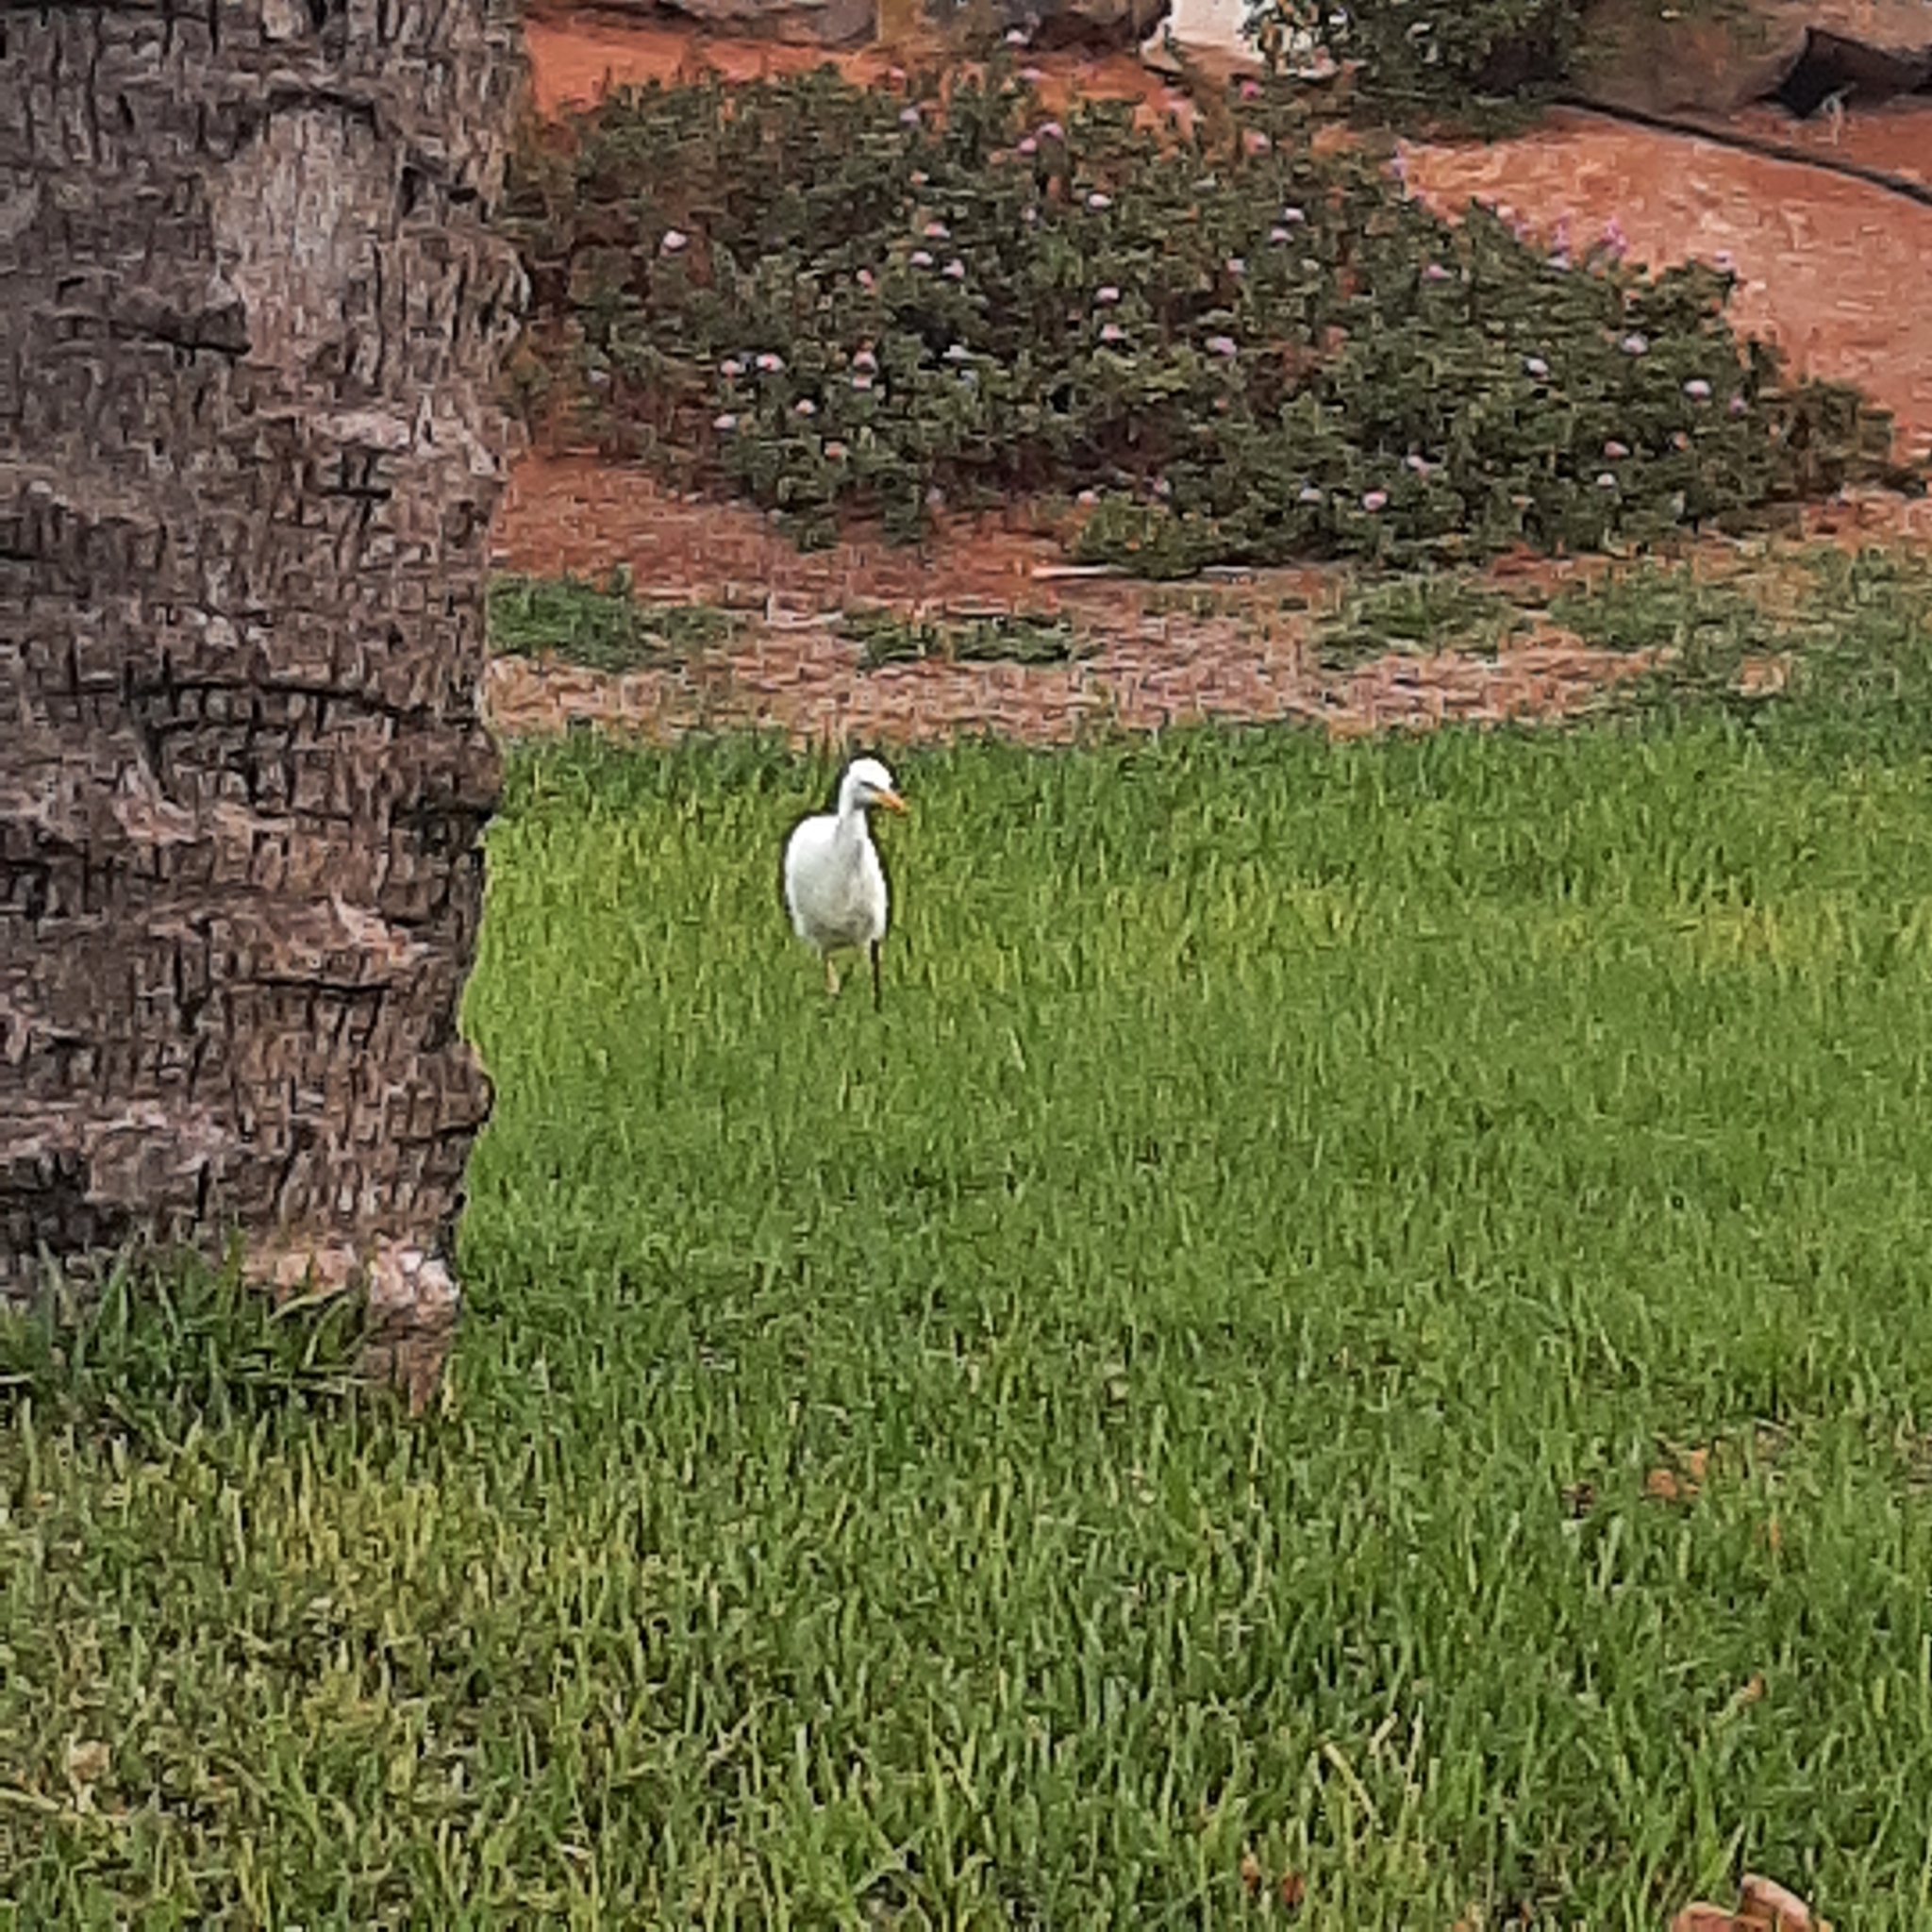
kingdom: Animalia
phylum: Chordata
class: Aves
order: Pelecaniformes
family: Ardeidae
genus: Bubulcus
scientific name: Bubulcus ibis
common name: Cattle egret
